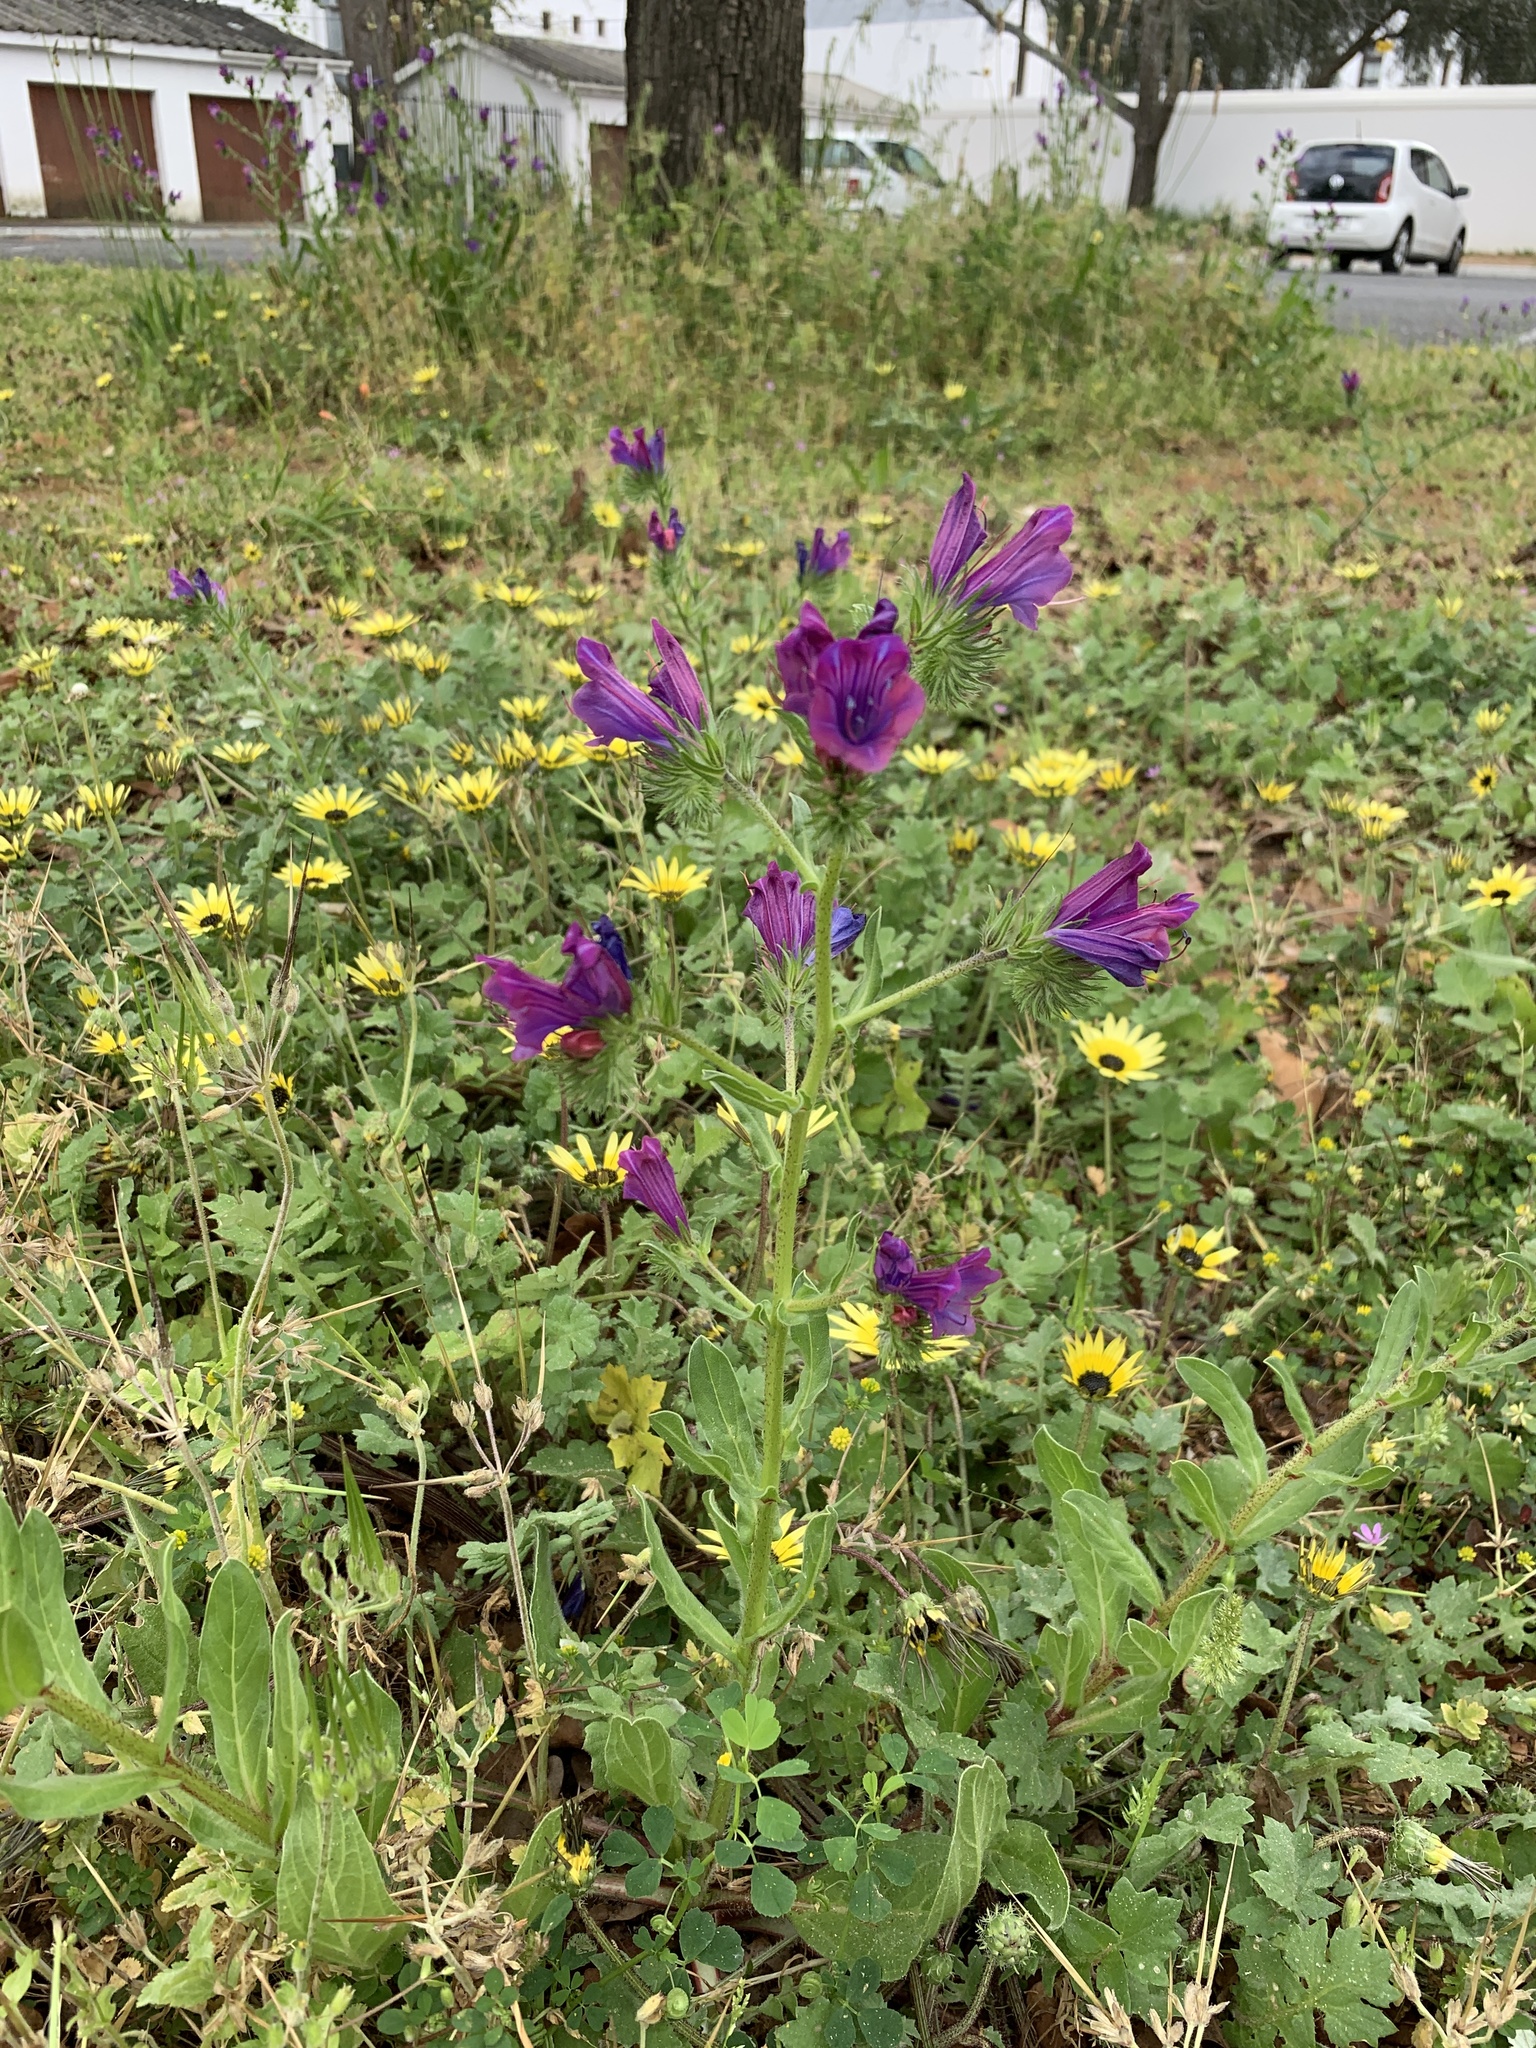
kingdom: Plantae
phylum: Tracheophyta
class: Magnoliopsida
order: Boraginales
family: Boraginaceae
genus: Echium
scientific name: Echium plantagineum
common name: Purple viper's-bugloss
